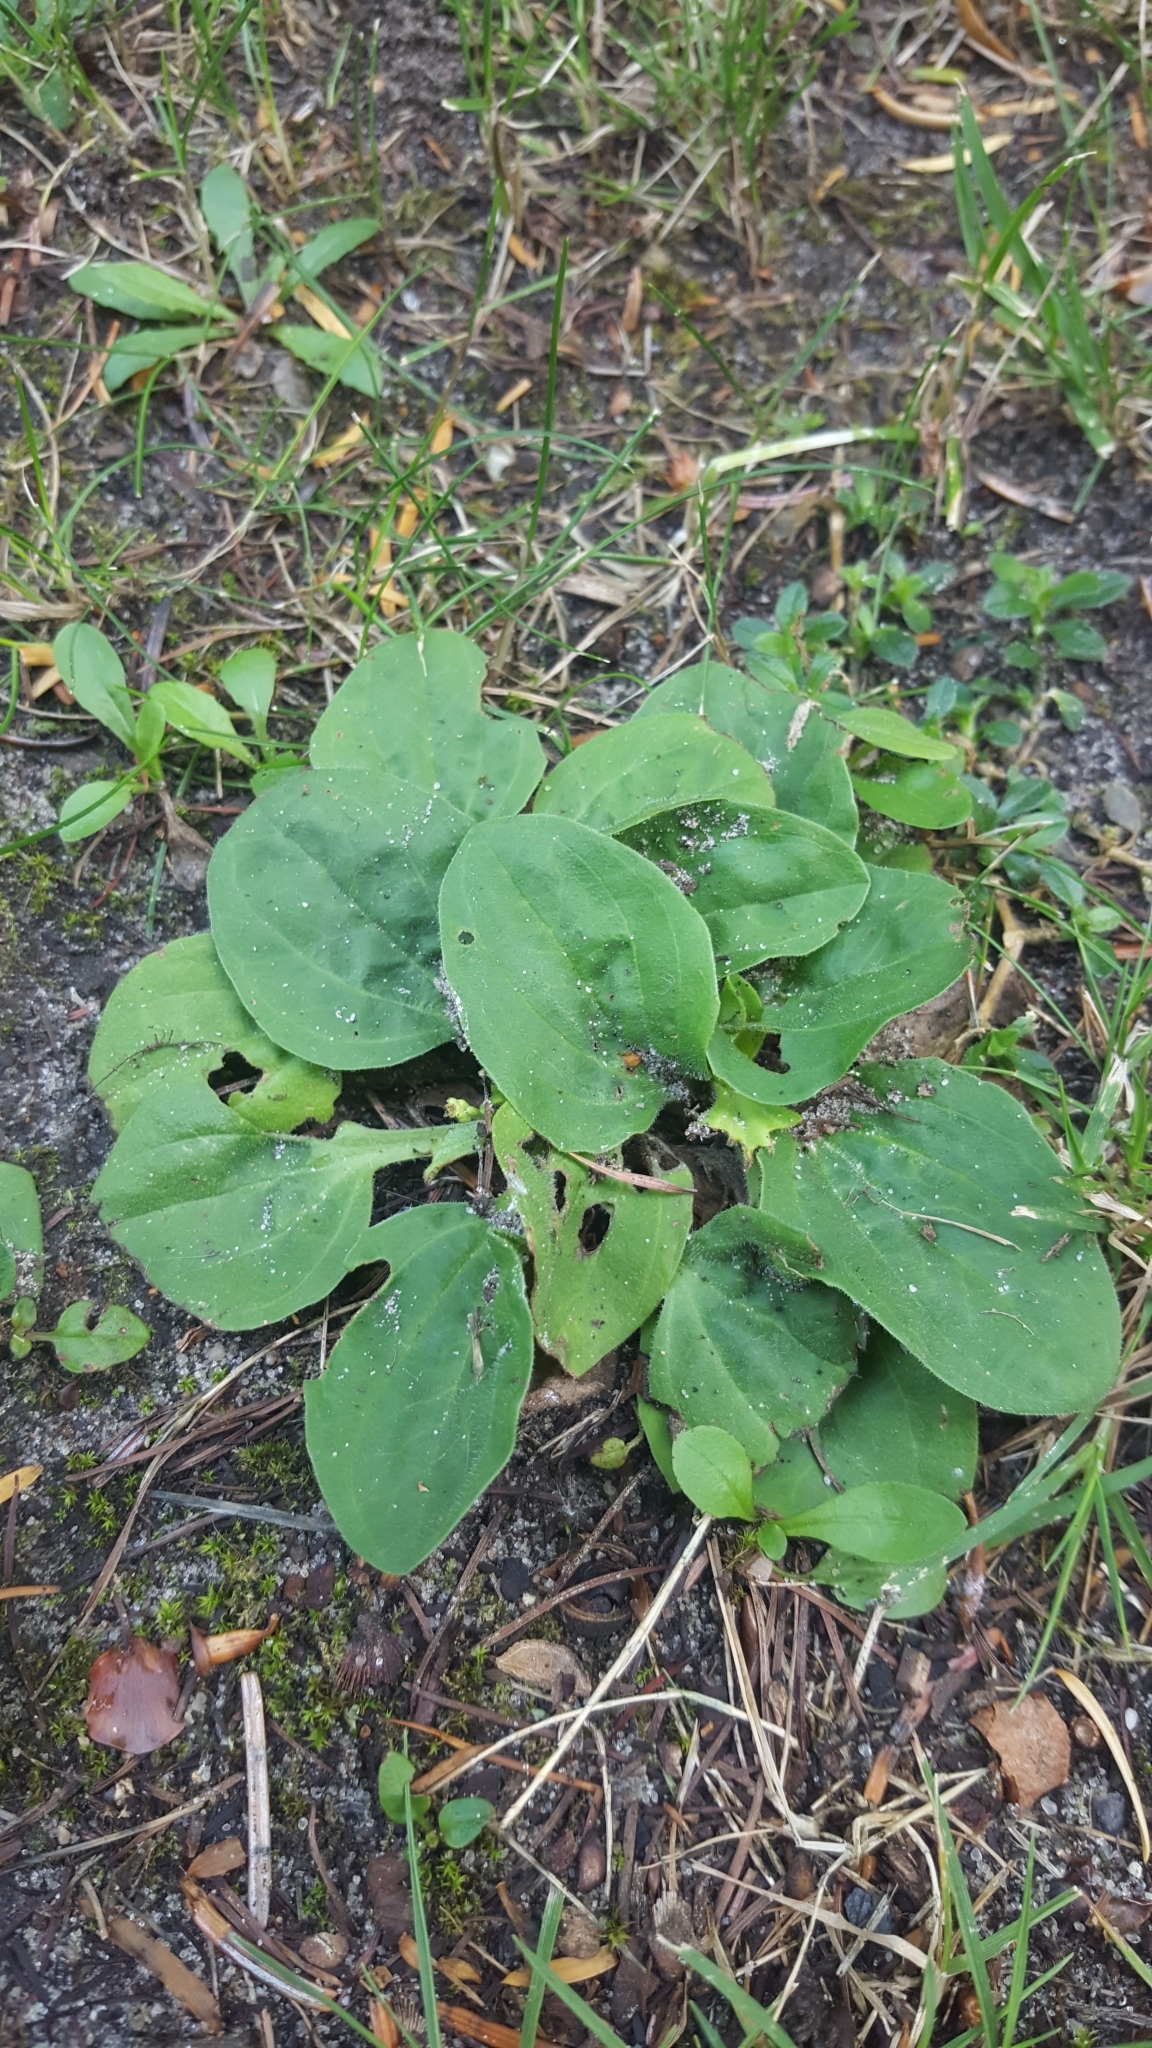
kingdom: Plantae
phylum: Tracheophyta
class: Magnoliopsida
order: Lamiales
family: Plantaginaceae
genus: Plantago
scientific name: Plantago major
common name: Common plantain
